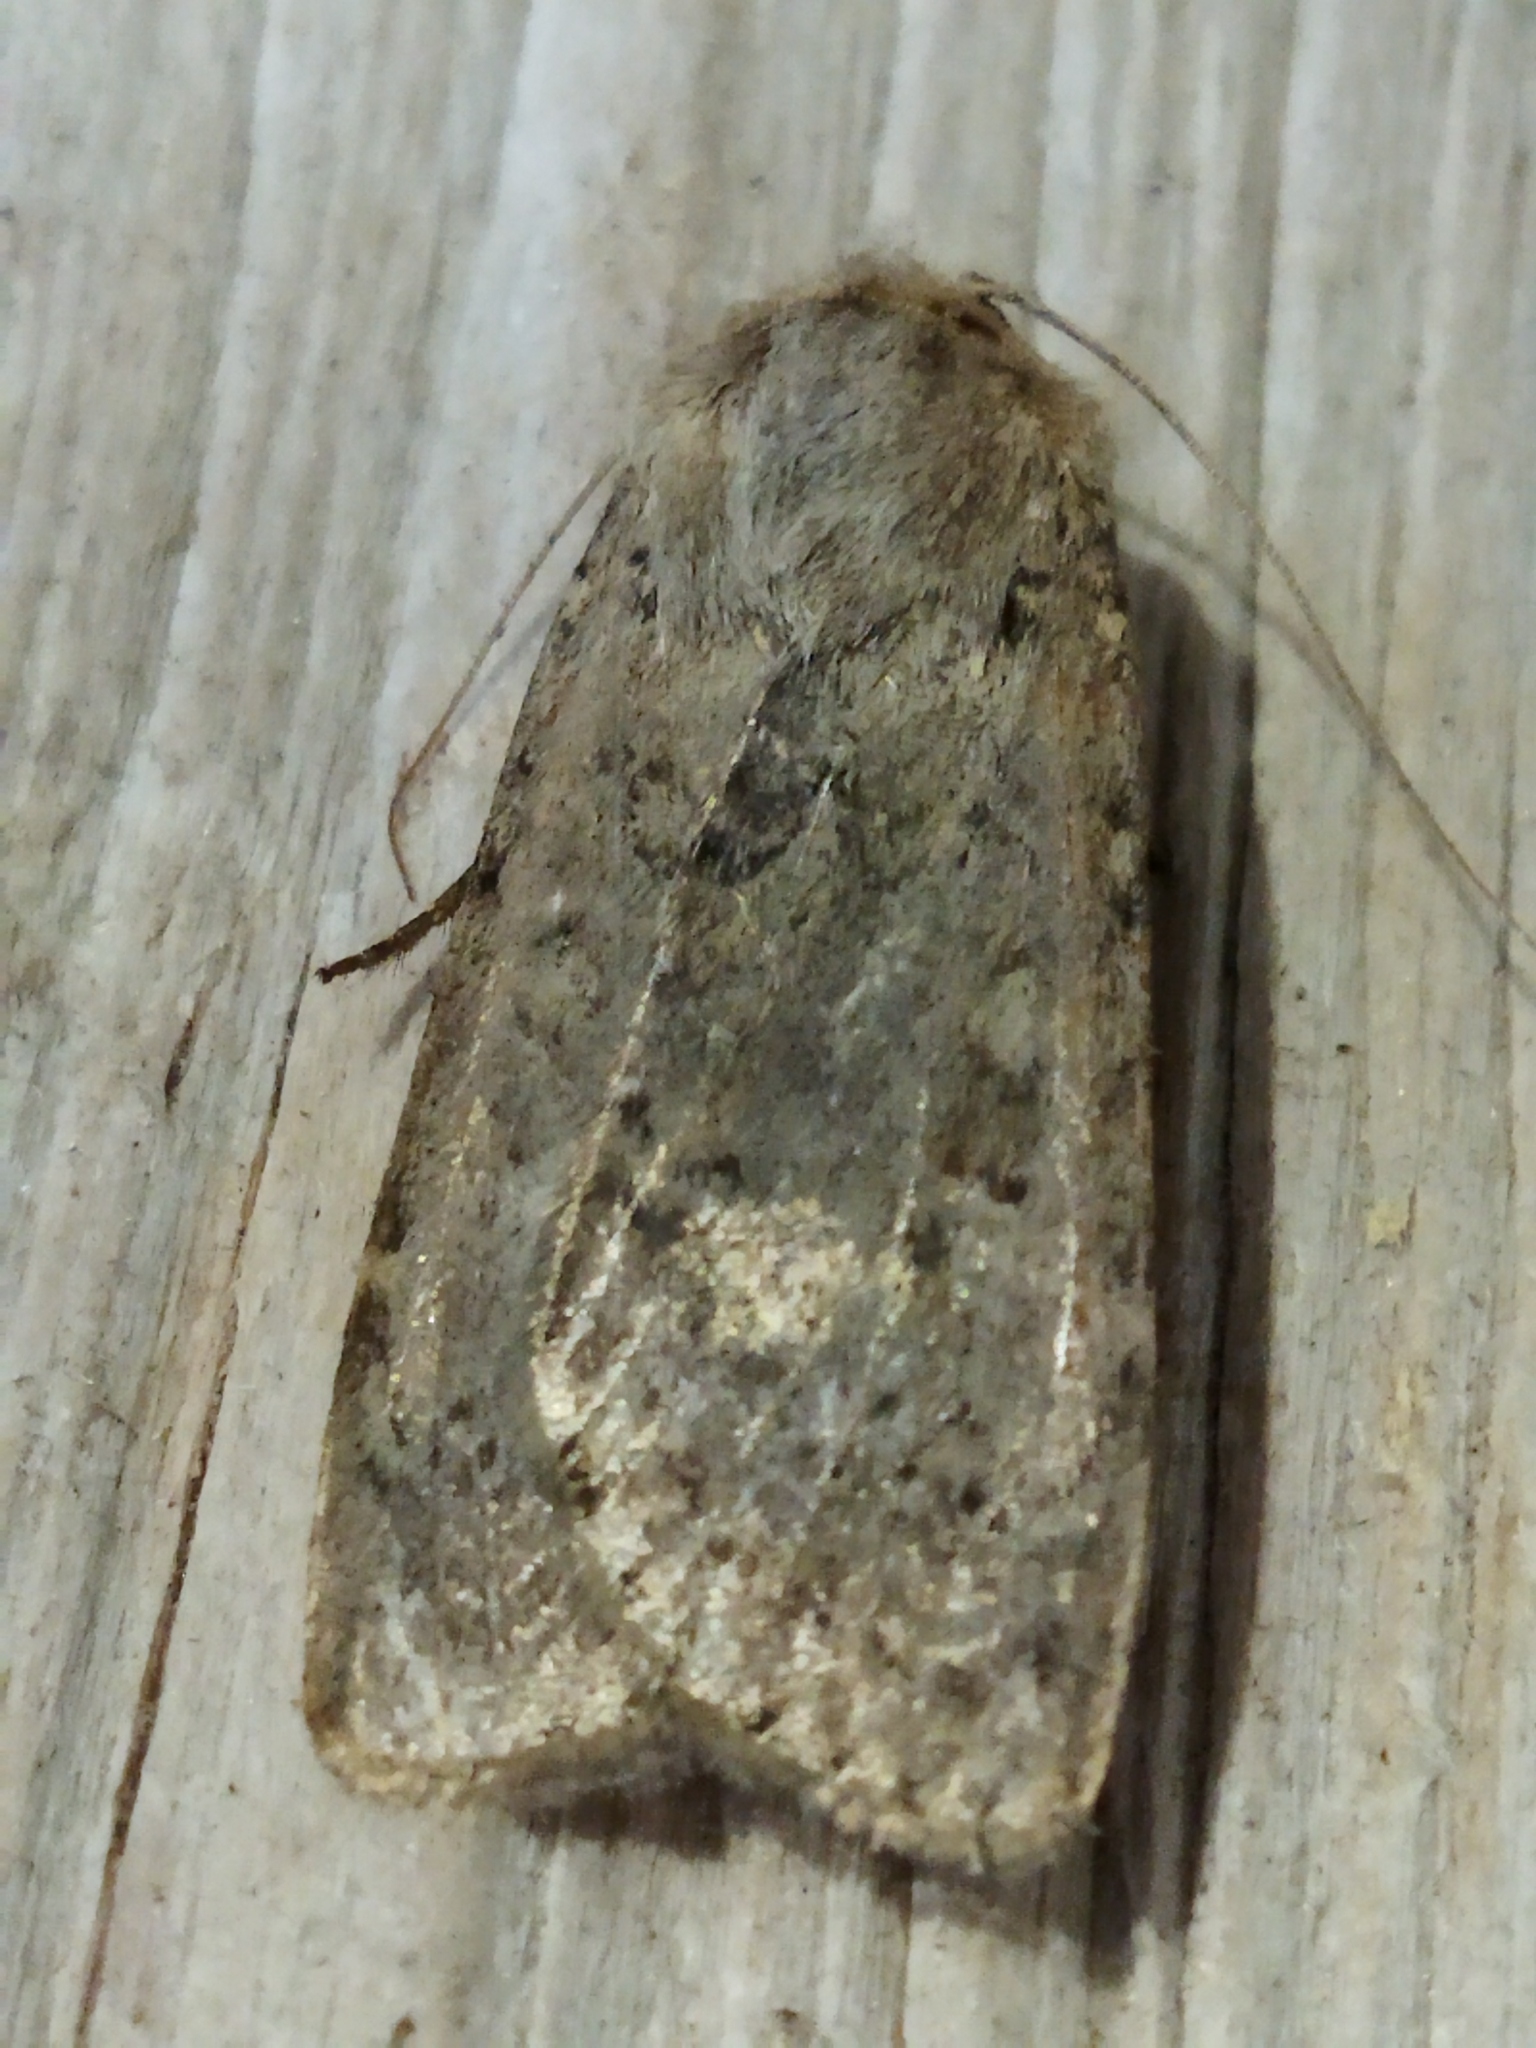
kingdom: Animalia
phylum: Arthropoda
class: Insecta
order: Lepidoptera
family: Noctuidae
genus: Rhyacia
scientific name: Rhyacia arenacea
